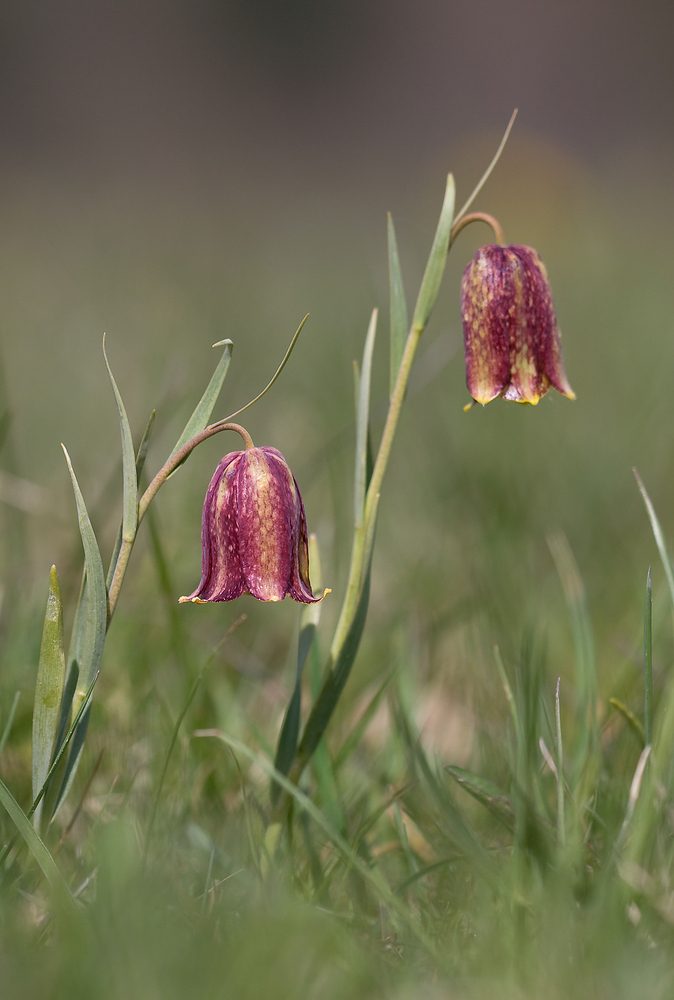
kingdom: Plantae
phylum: Tracheophyta
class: Liliopsida
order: Liliales
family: Liliaceae
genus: Fritillaria
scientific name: Fritillaria pyrenaica
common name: Pyrenean snake's-head
